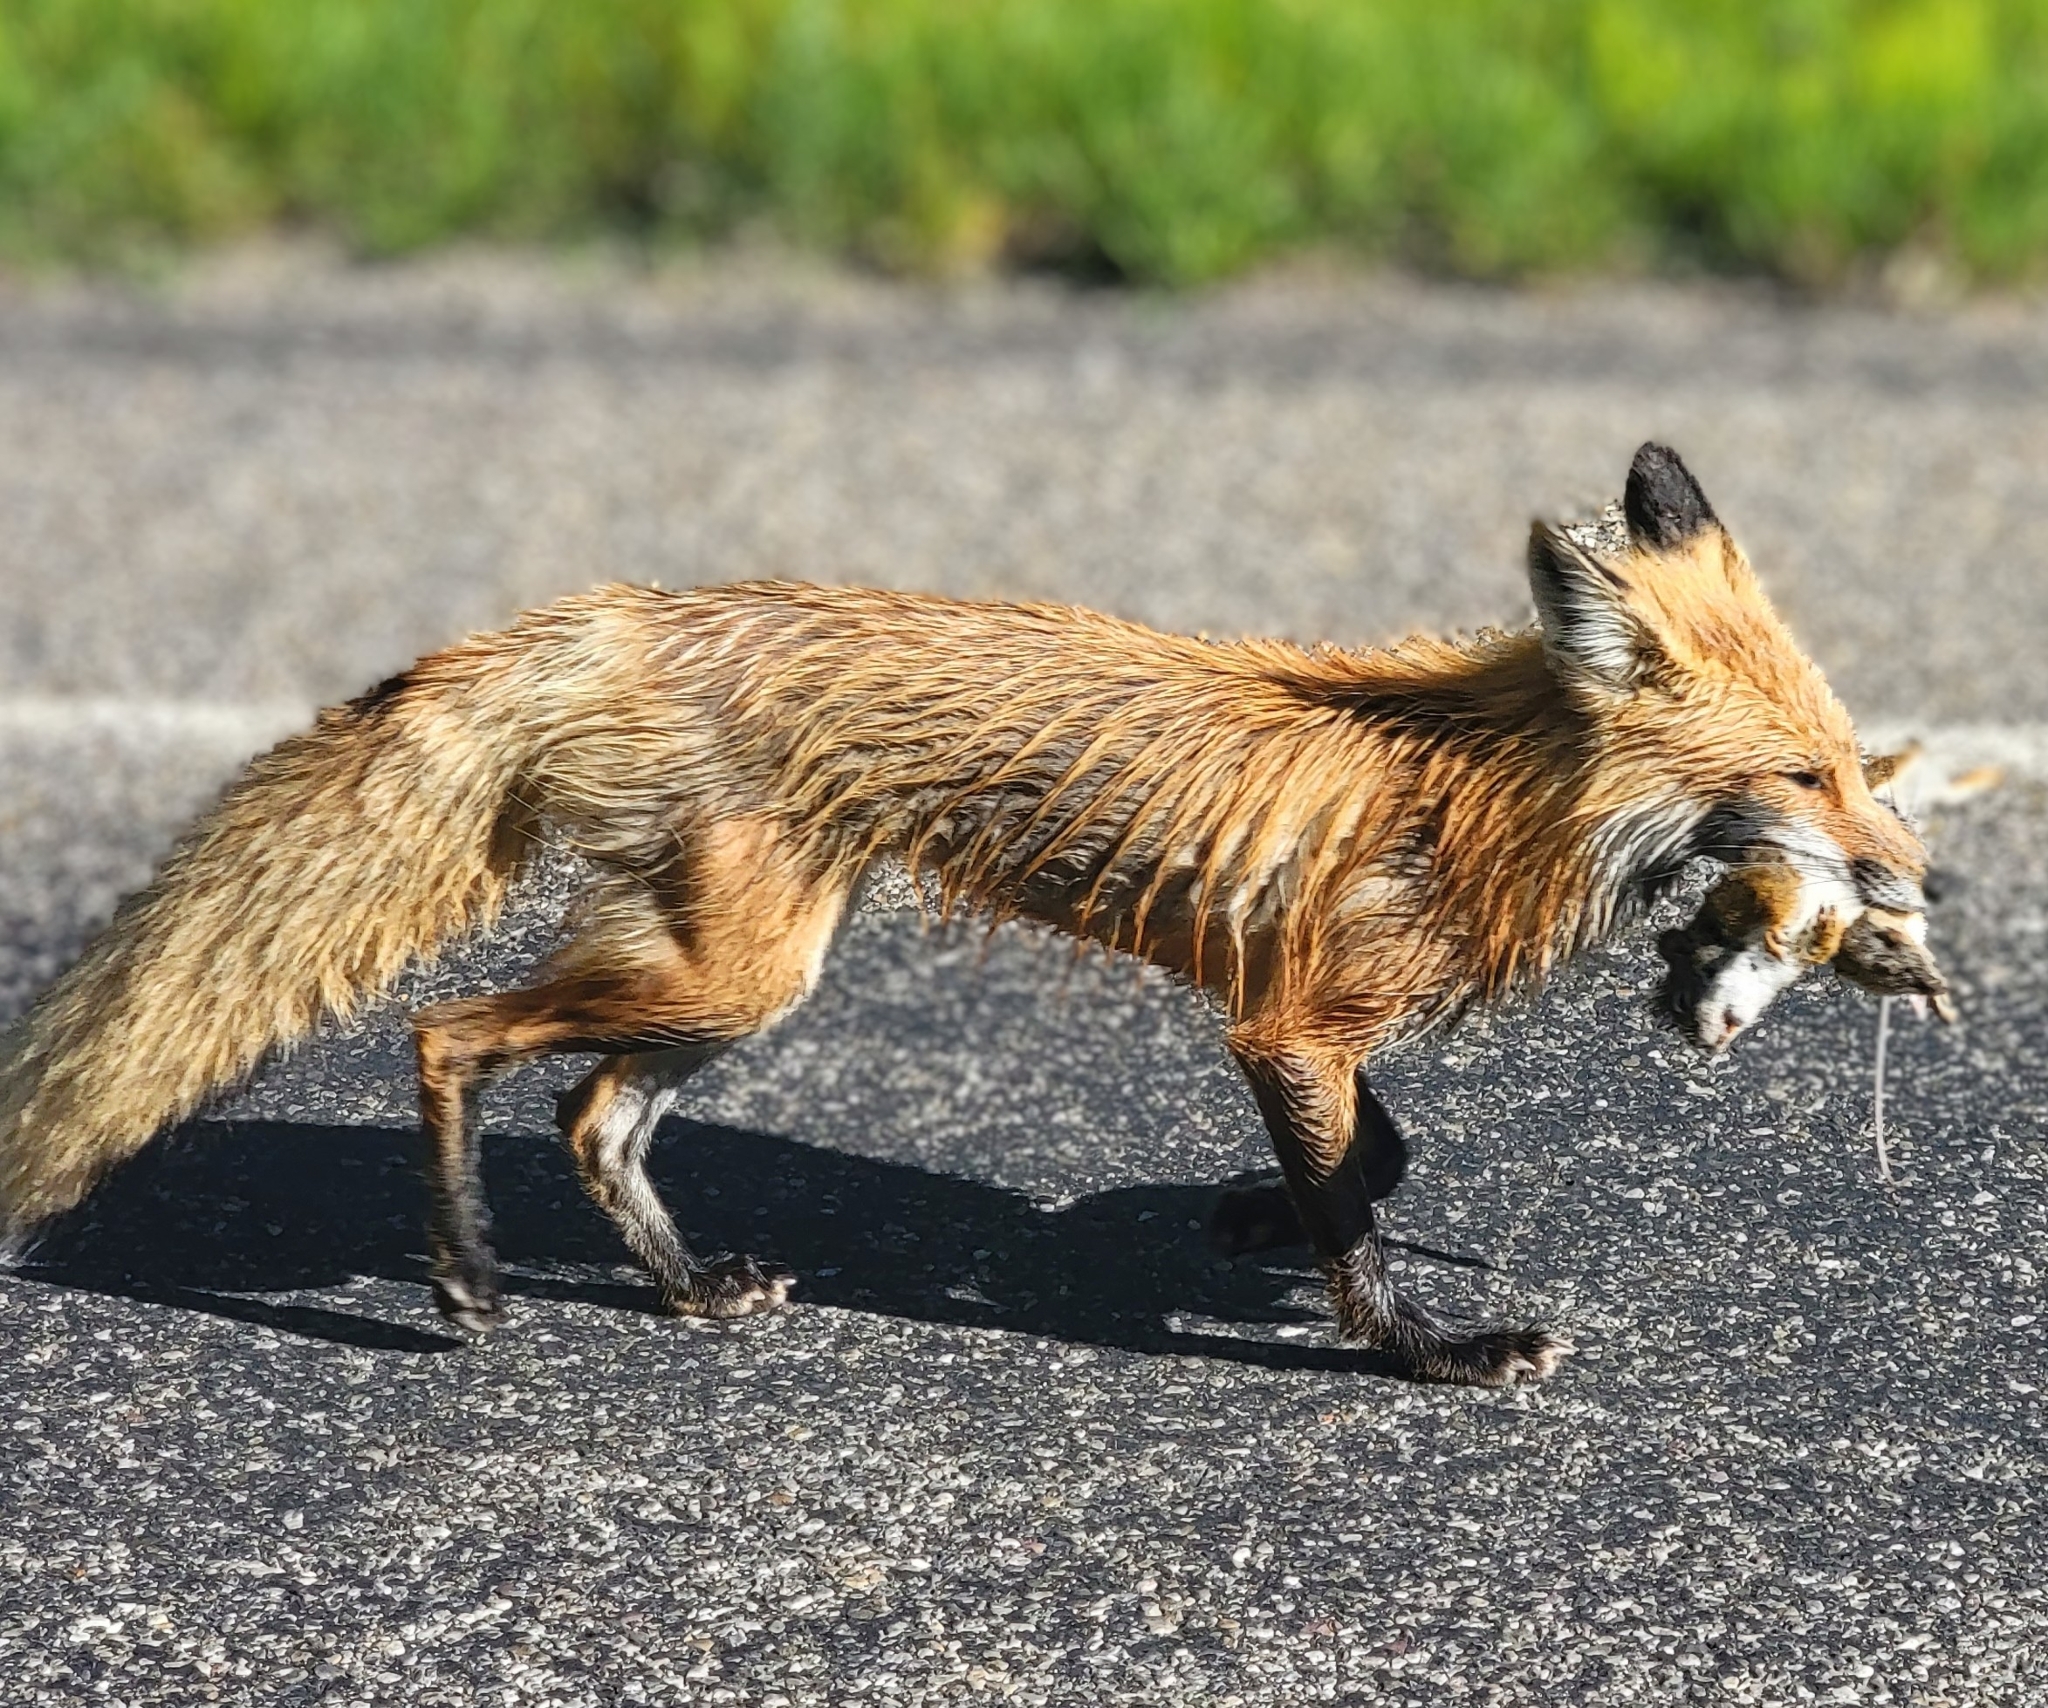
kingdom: Animalia
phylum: Chordata
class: Mammalia
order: Carnivora
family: Canidae
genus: Vulpes
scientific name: Vulpes vulpes
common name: Red fox
